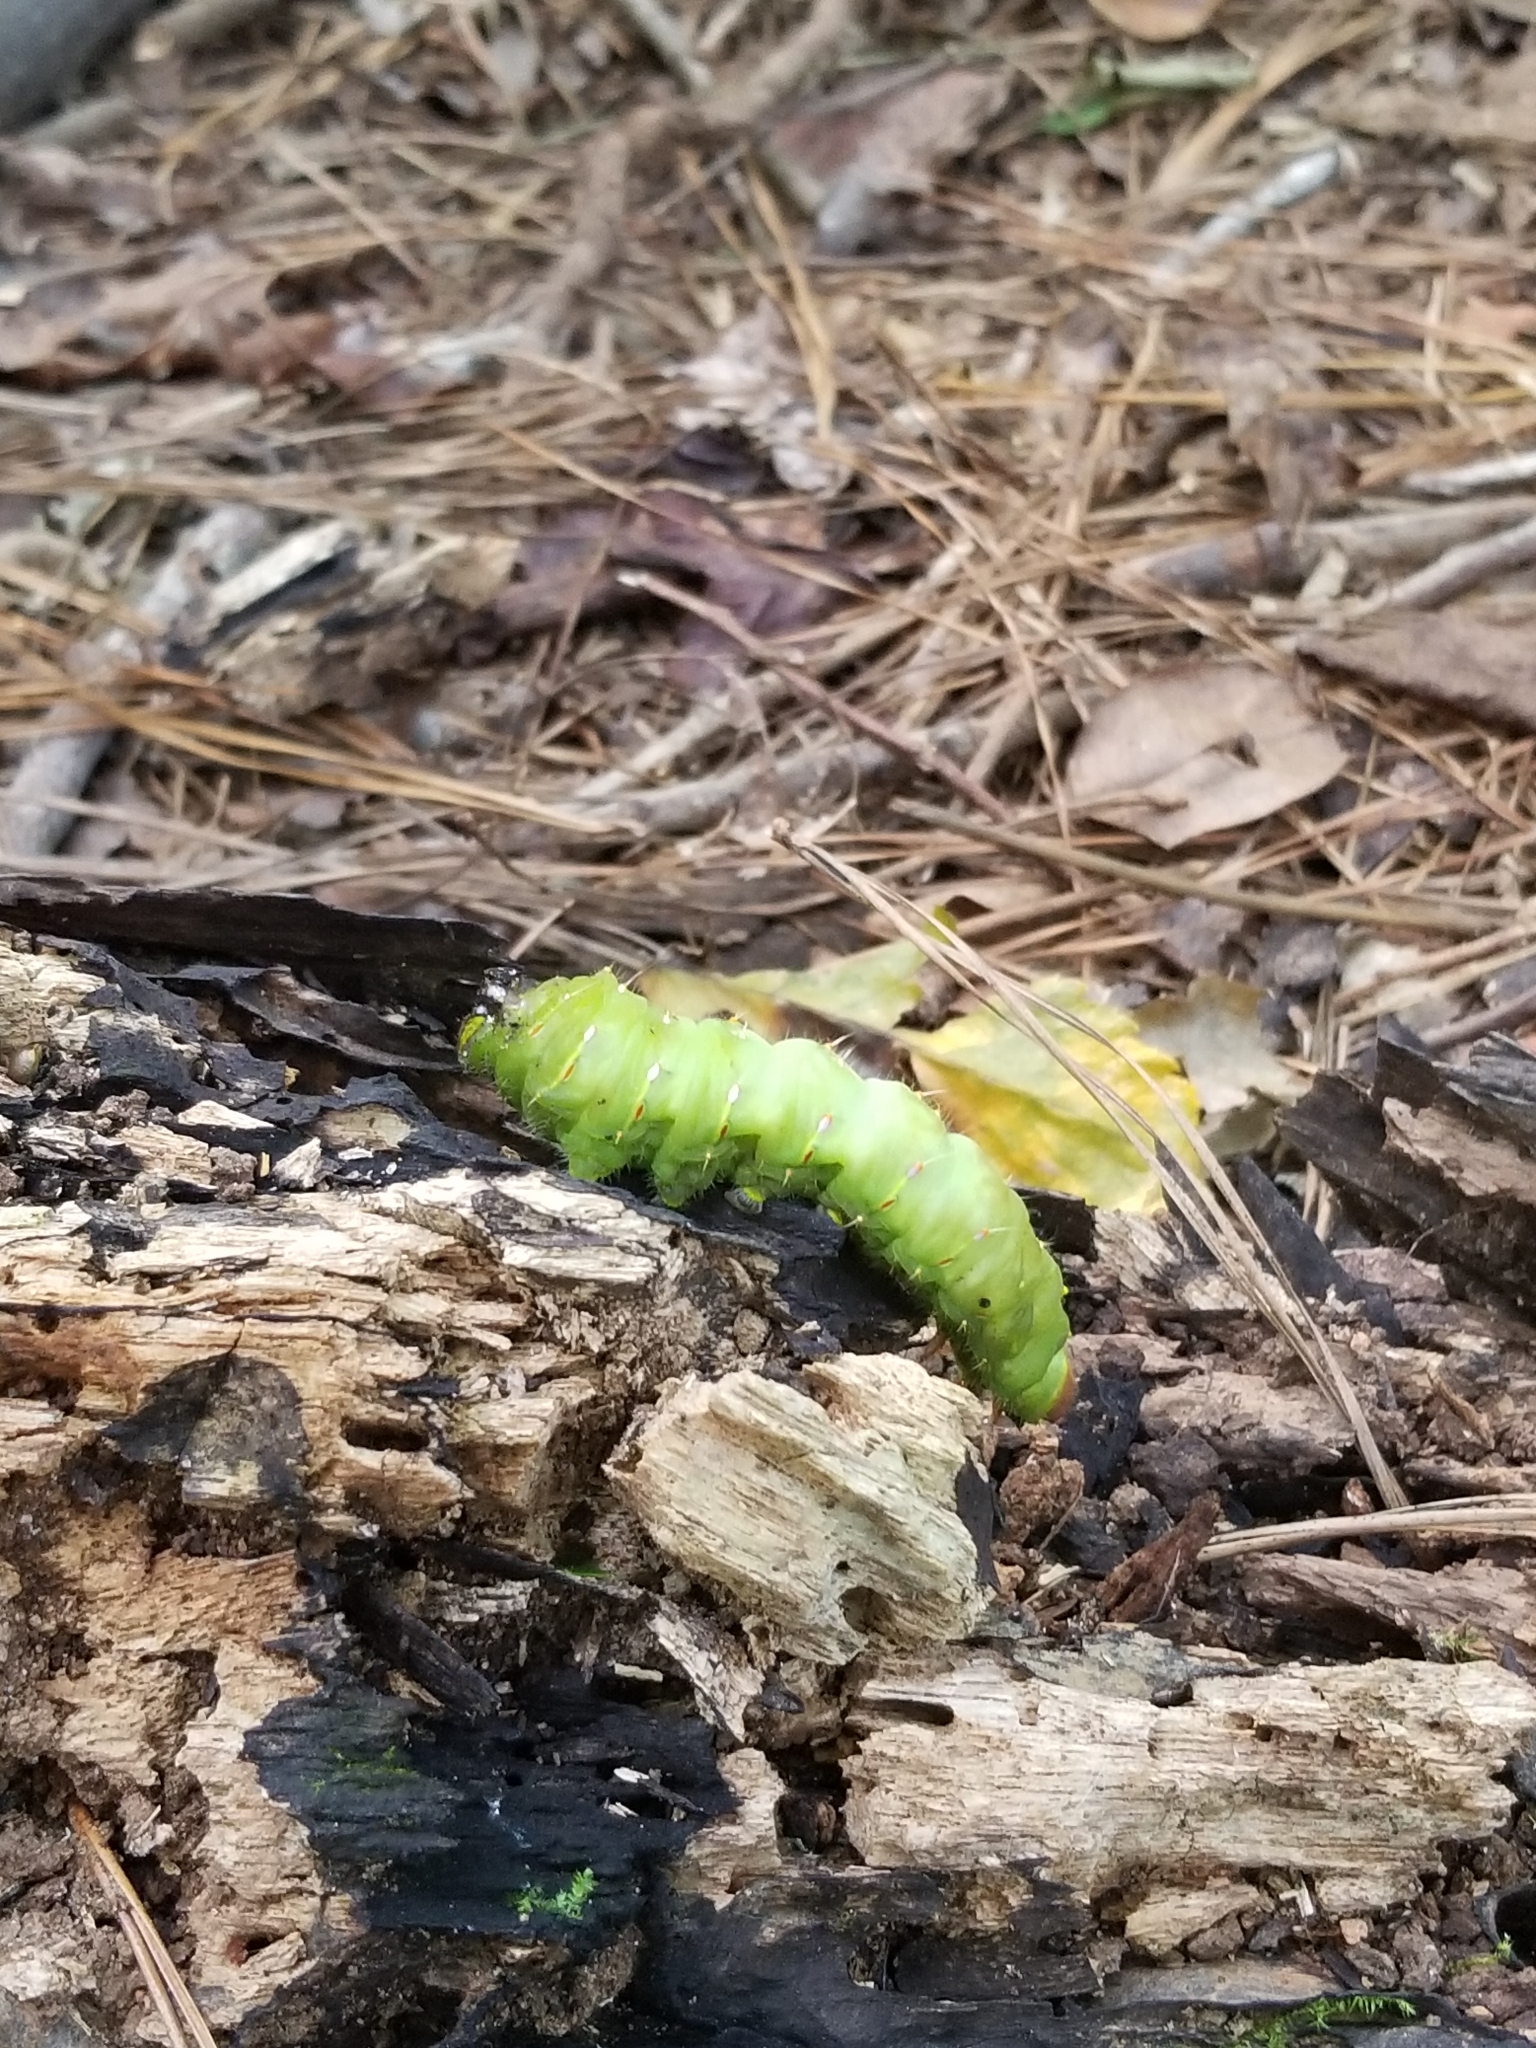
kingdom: Animalia
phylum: Arthropoda
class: Insecta
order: Lepidoptera
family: Saturniidae
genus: Antheraea
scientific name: Antheraea polyphemus
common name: Polyphemus moth
